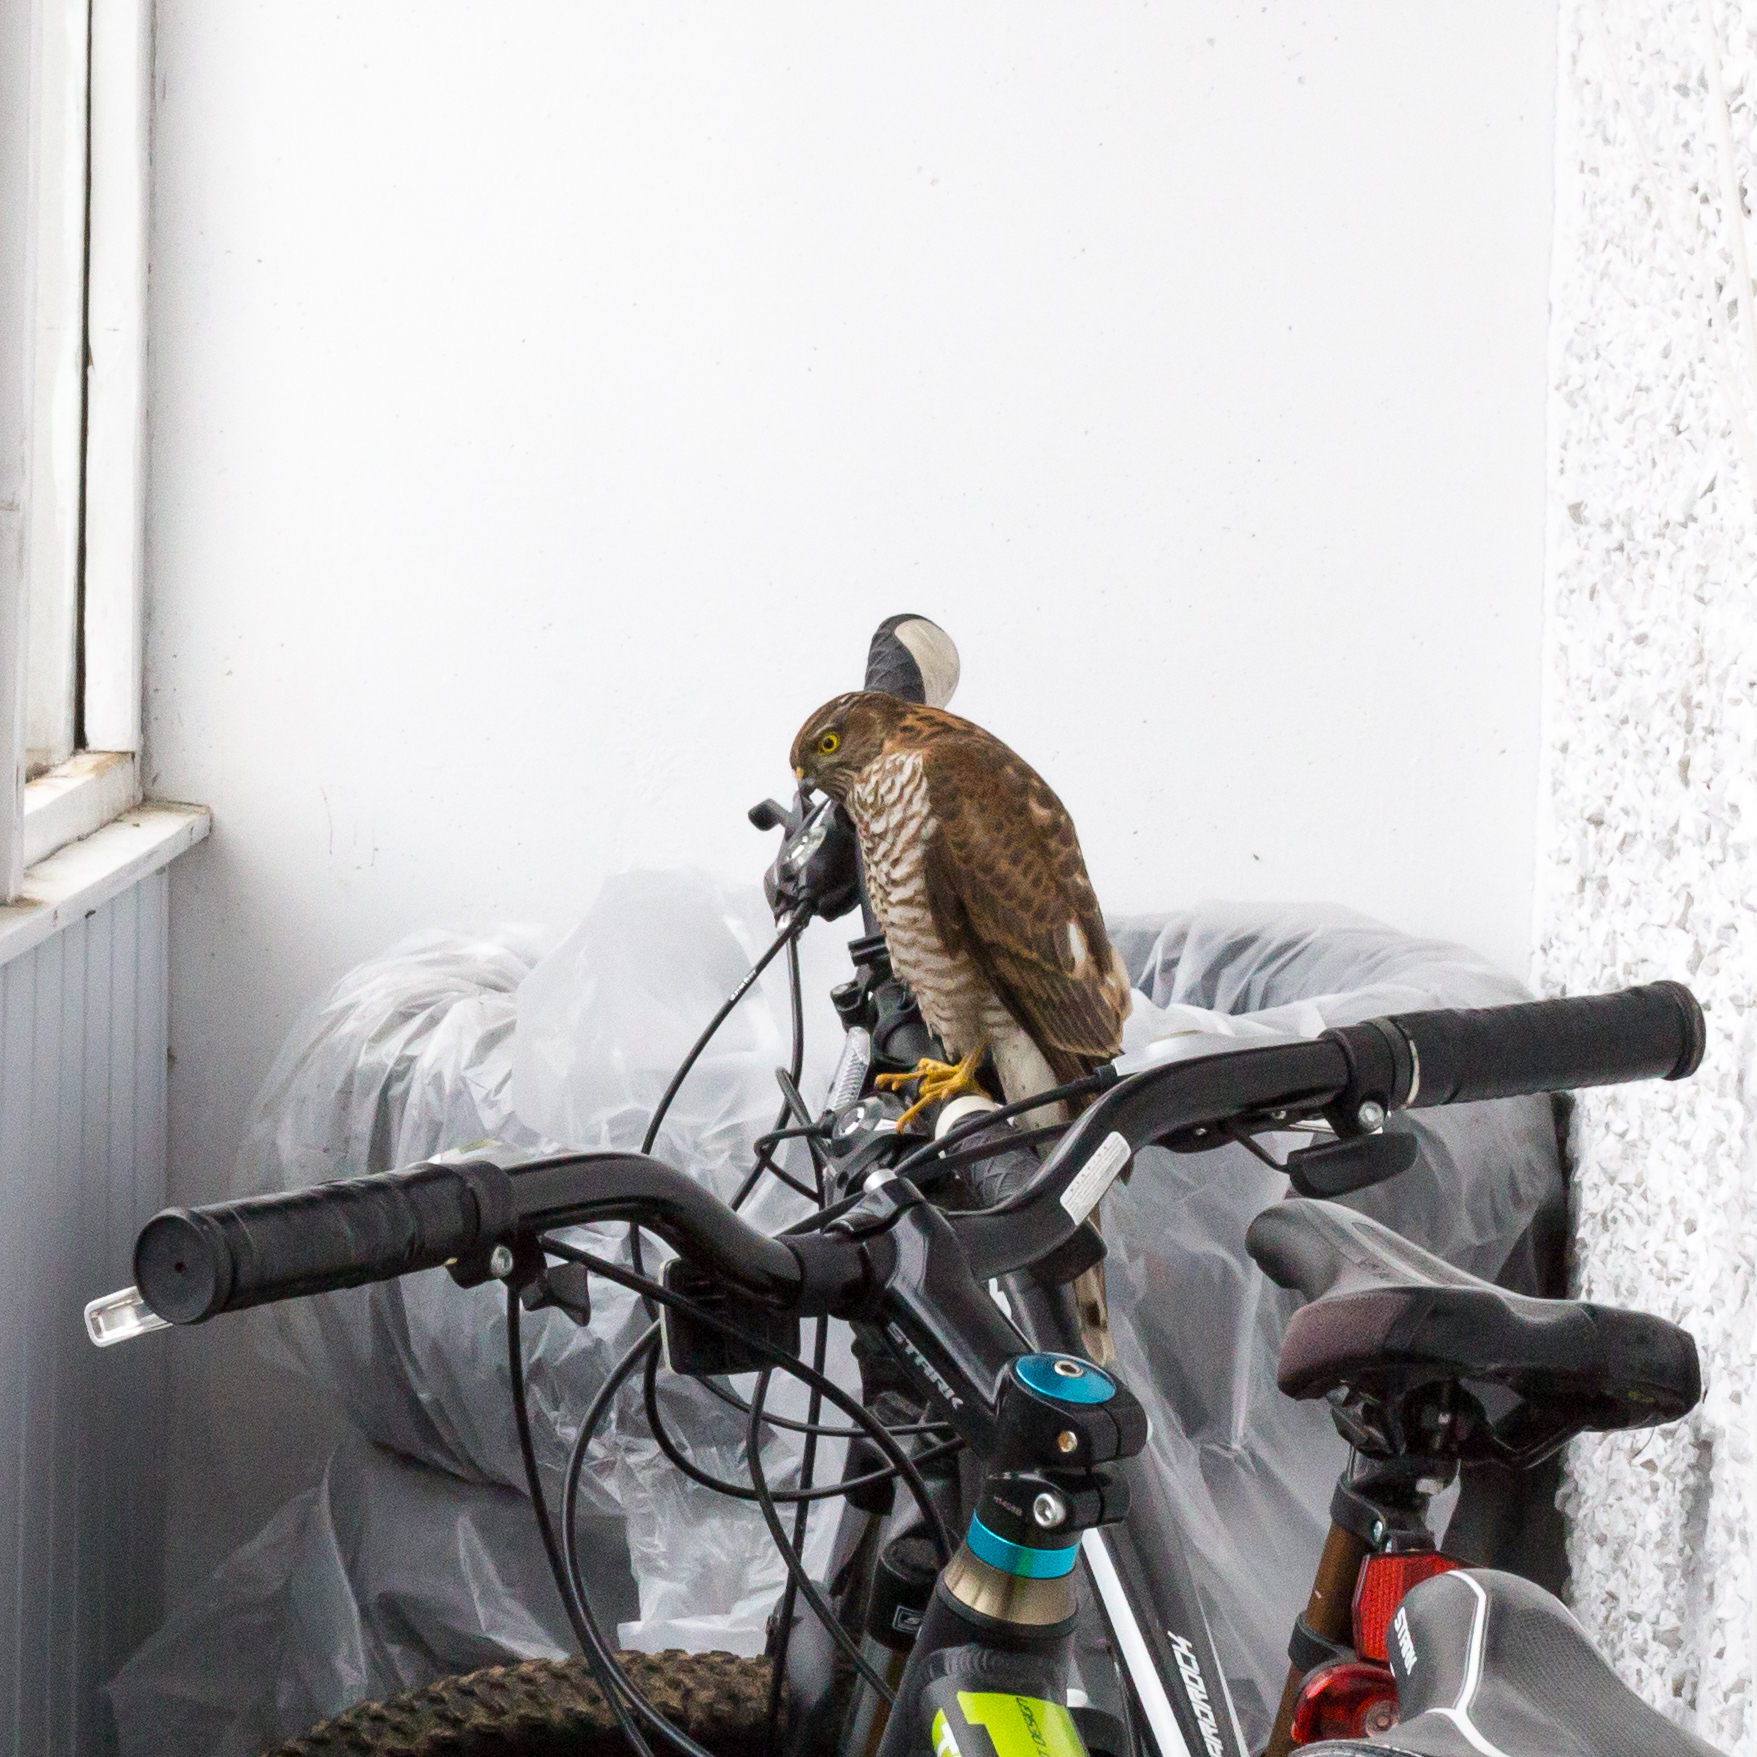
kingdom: Animalia
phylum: Chordata
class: Aves
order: Accipitriformes
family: Accipitridae
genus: Accipiter
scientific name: Accipiter nisus
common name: Eurasian sparrowhawk
